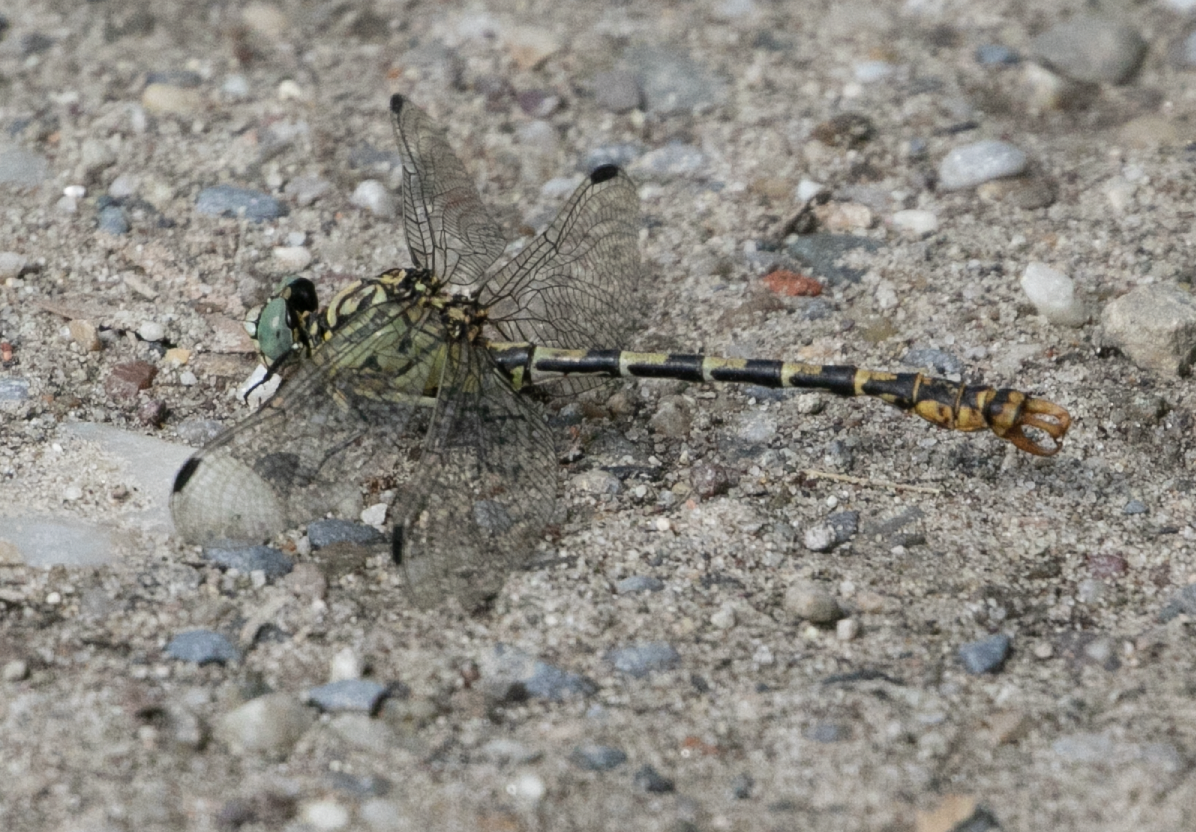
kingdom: Animalia
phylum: Arthropoda
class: Insecta
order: Odonata
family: Gomphidae
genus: Onychogomphus
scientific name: Onychogomphus forcipatus
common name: Small pincertail
